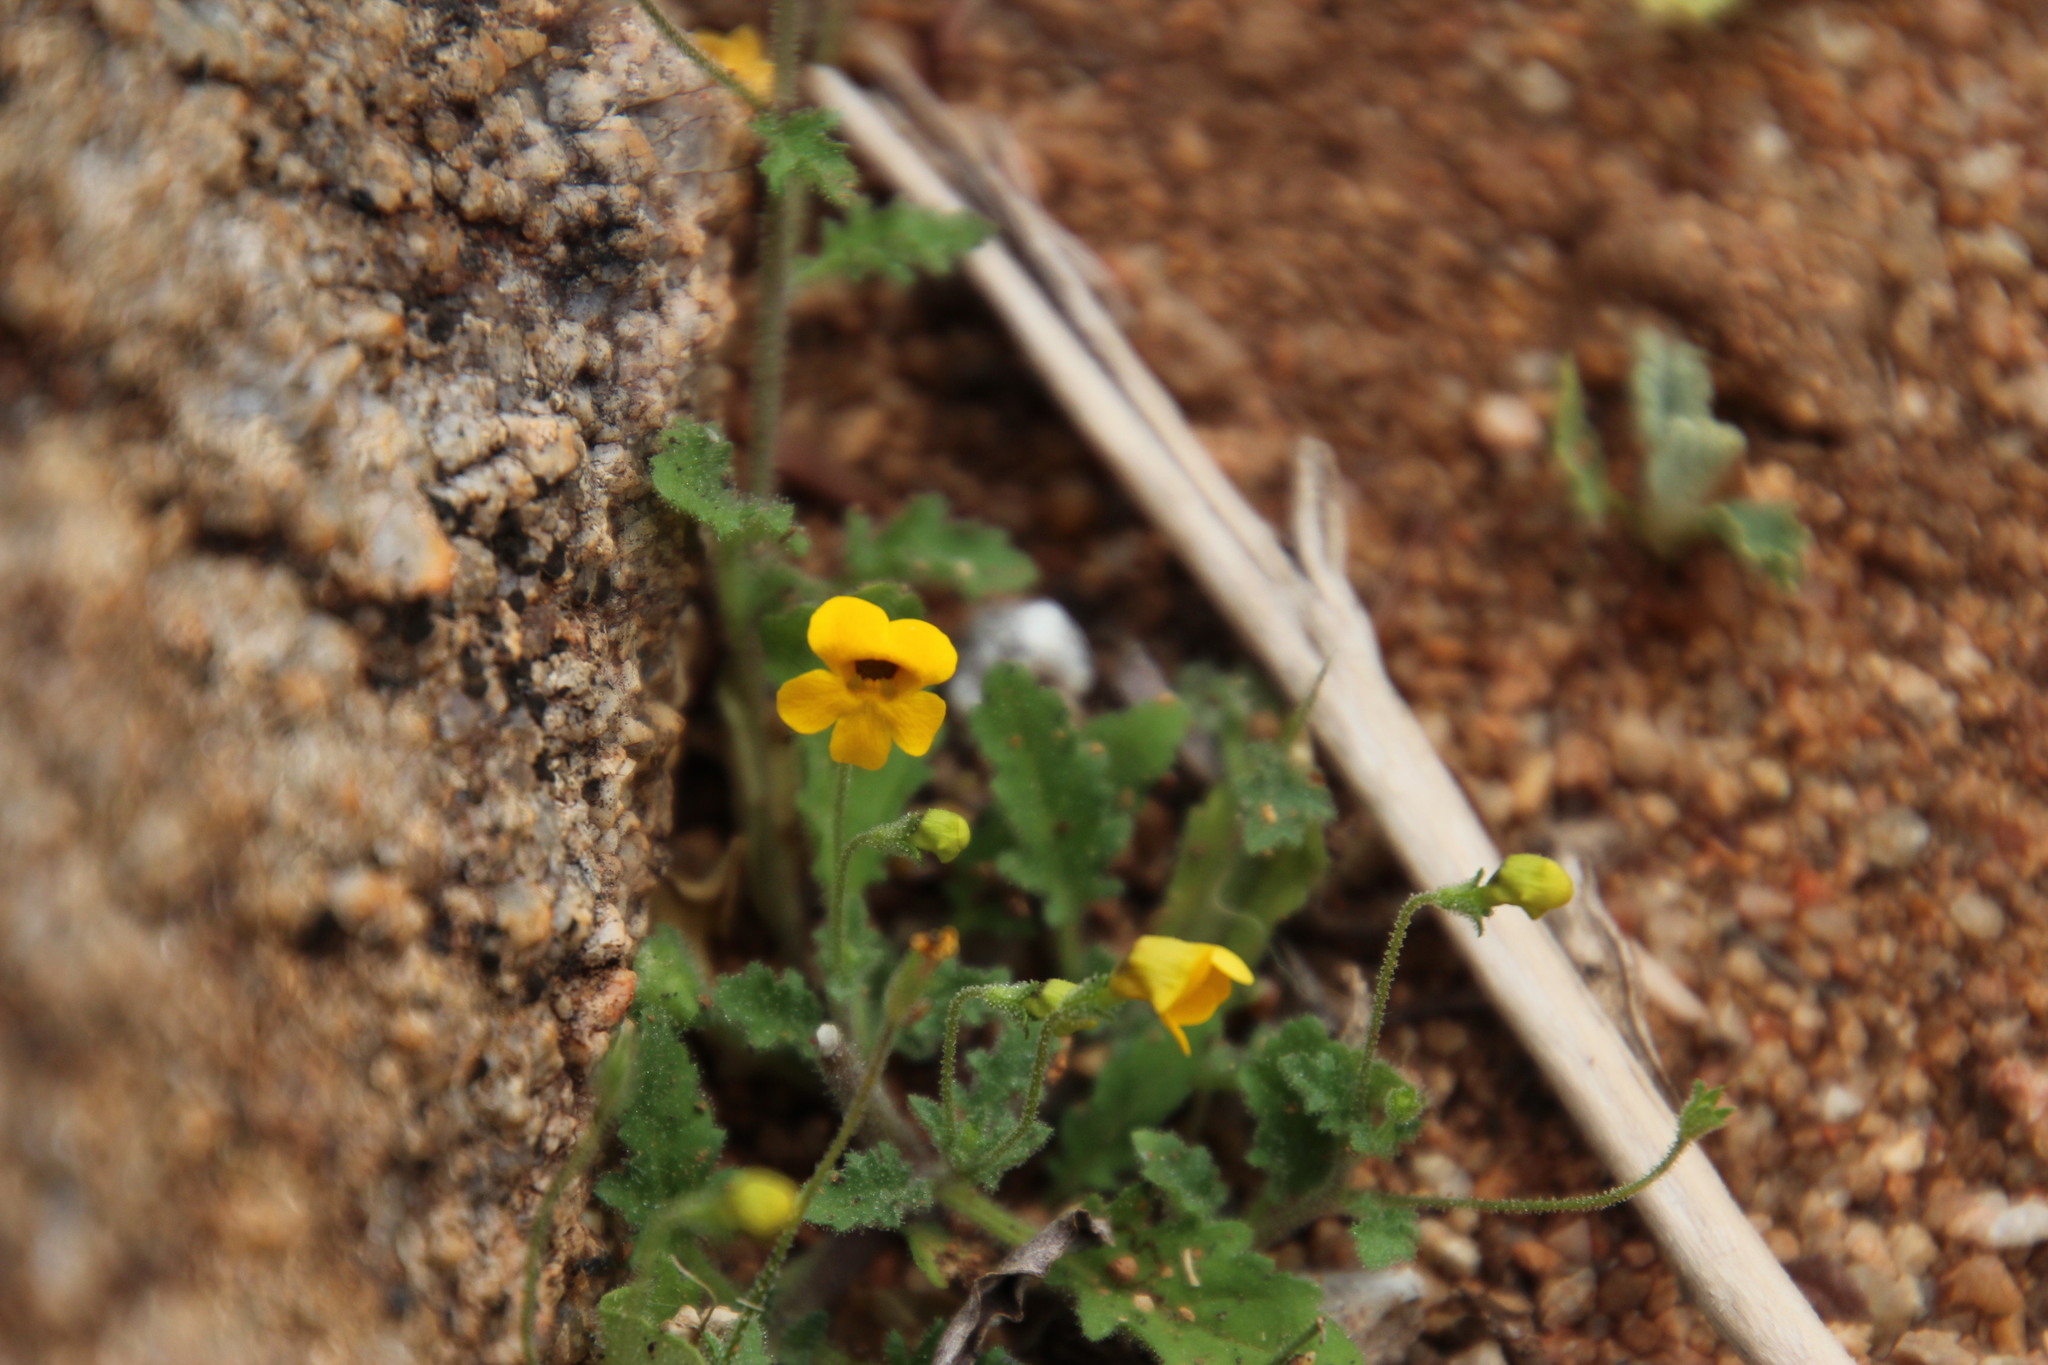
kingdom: Plantae
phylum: Tracheophyta
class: Magnoliopsida
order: Lamiales
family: Scrophulariaceae
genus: Jamesbrittenia
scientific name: Jamesbrittenia pedunculosa
